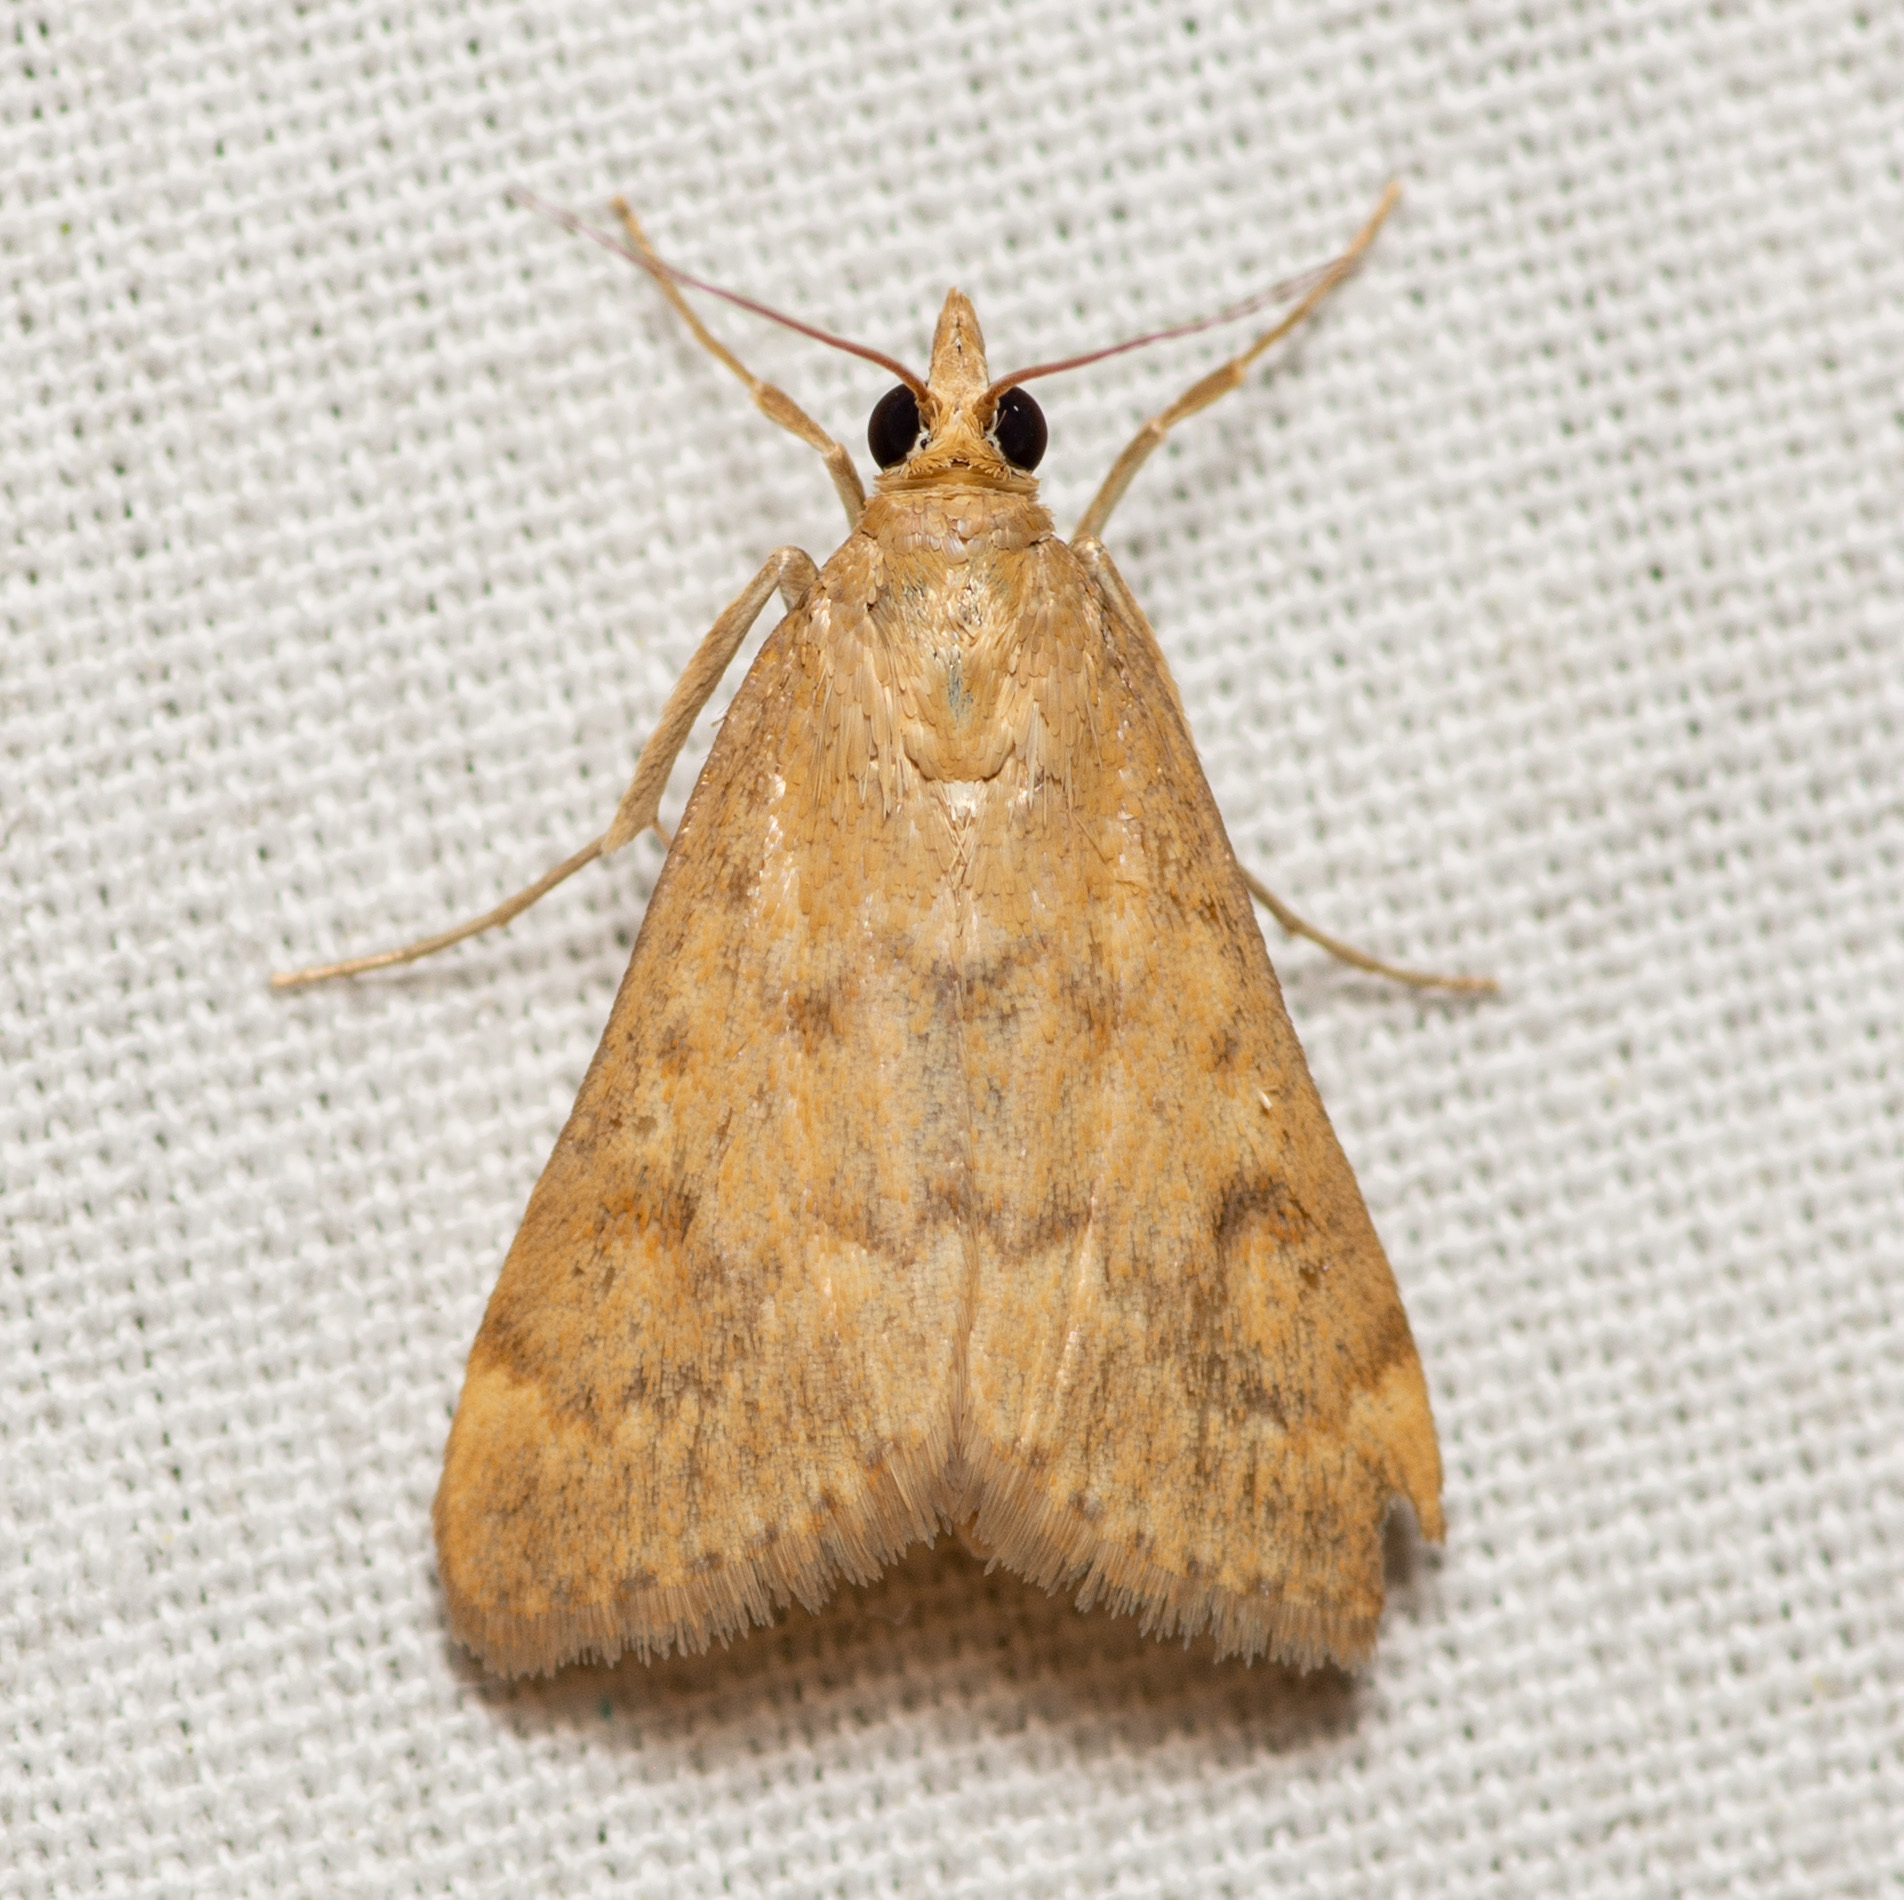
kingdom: Animalia
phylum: Arthropoda
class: Insecta
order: Lepidoptera
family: Crambidae
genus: Achyra
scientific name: Achyra rantalis
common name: Garden webworm
